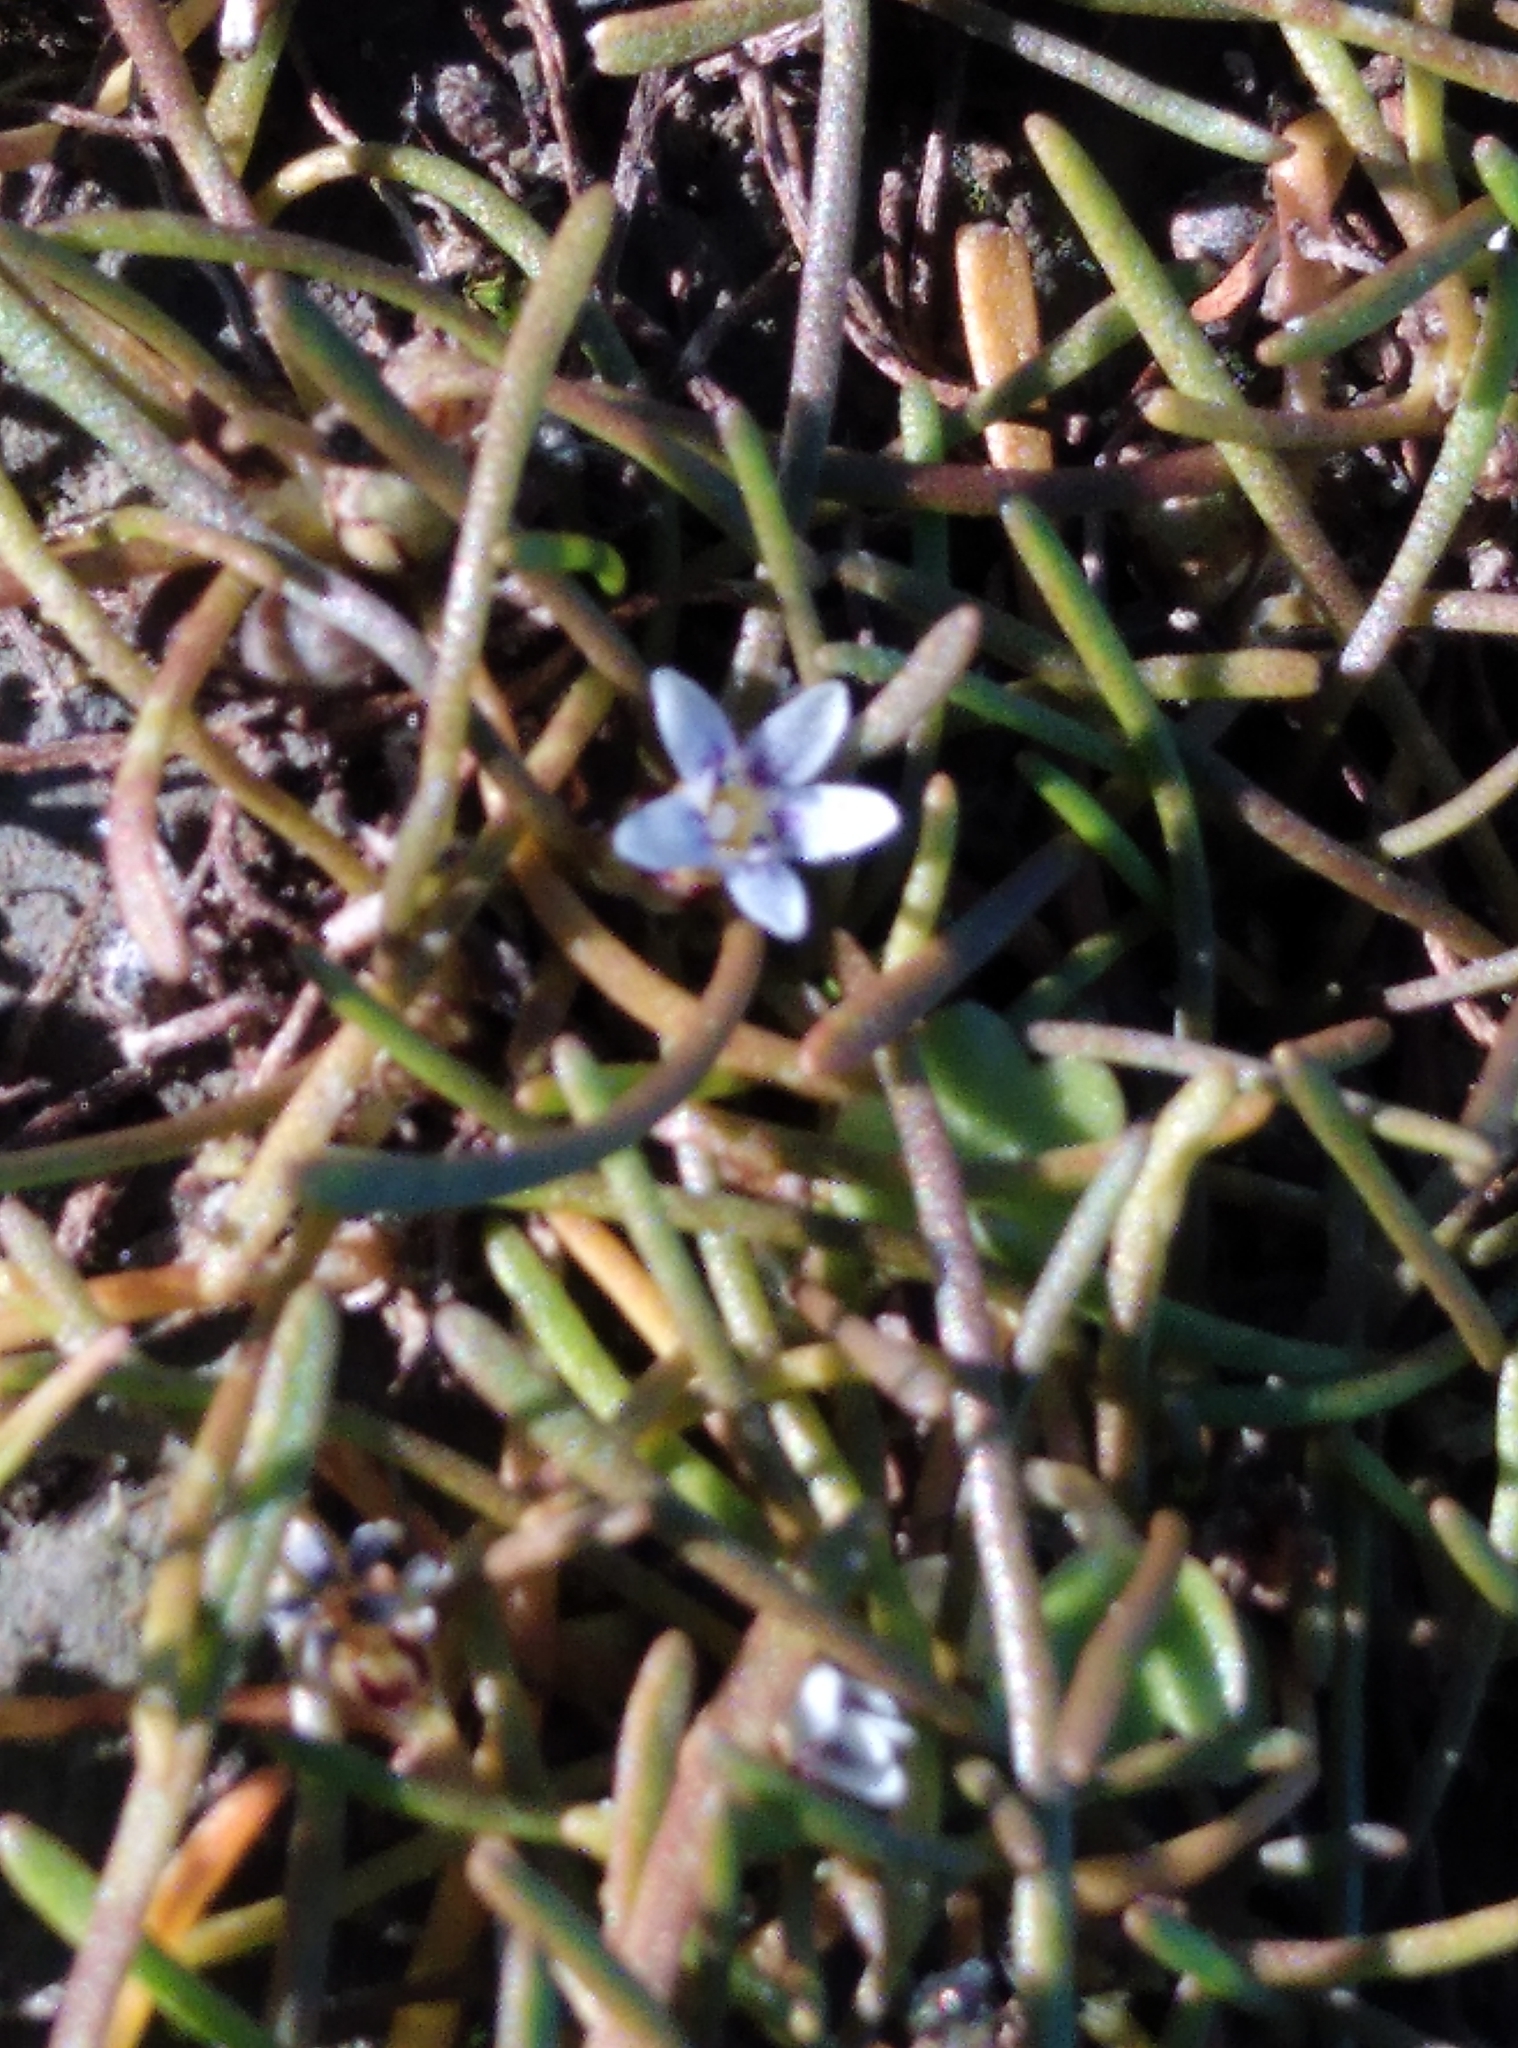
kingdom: Plantae
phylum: Tracheophyta
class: Magnoliopsida
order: Lamiales
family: Scrophulariaceae
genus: Limosella
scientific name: Limosella australis
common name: Welsh mudwort
